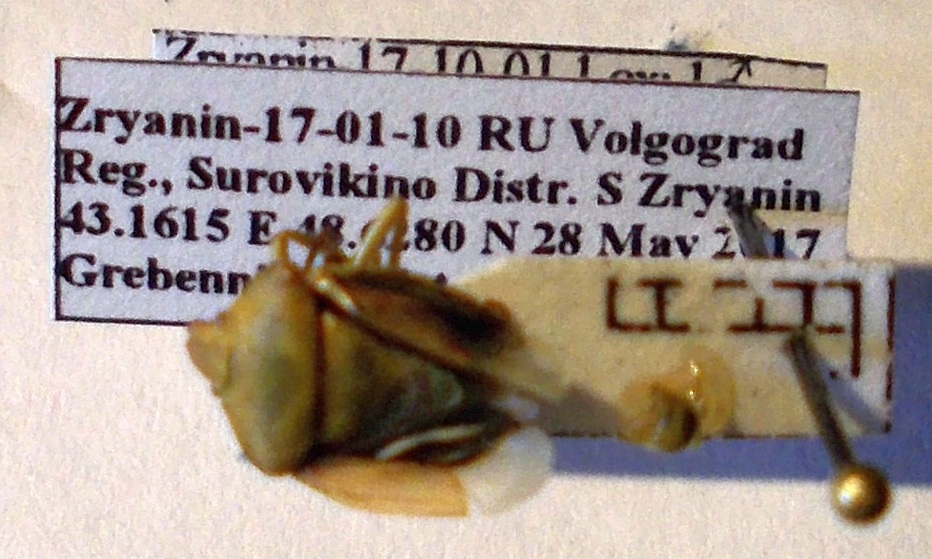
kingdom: Animalia
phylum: Arthropoda
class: Insecta
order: Hemiptera
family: Pentatomidae
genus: Antheminia
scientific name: Antheminia lunulata
